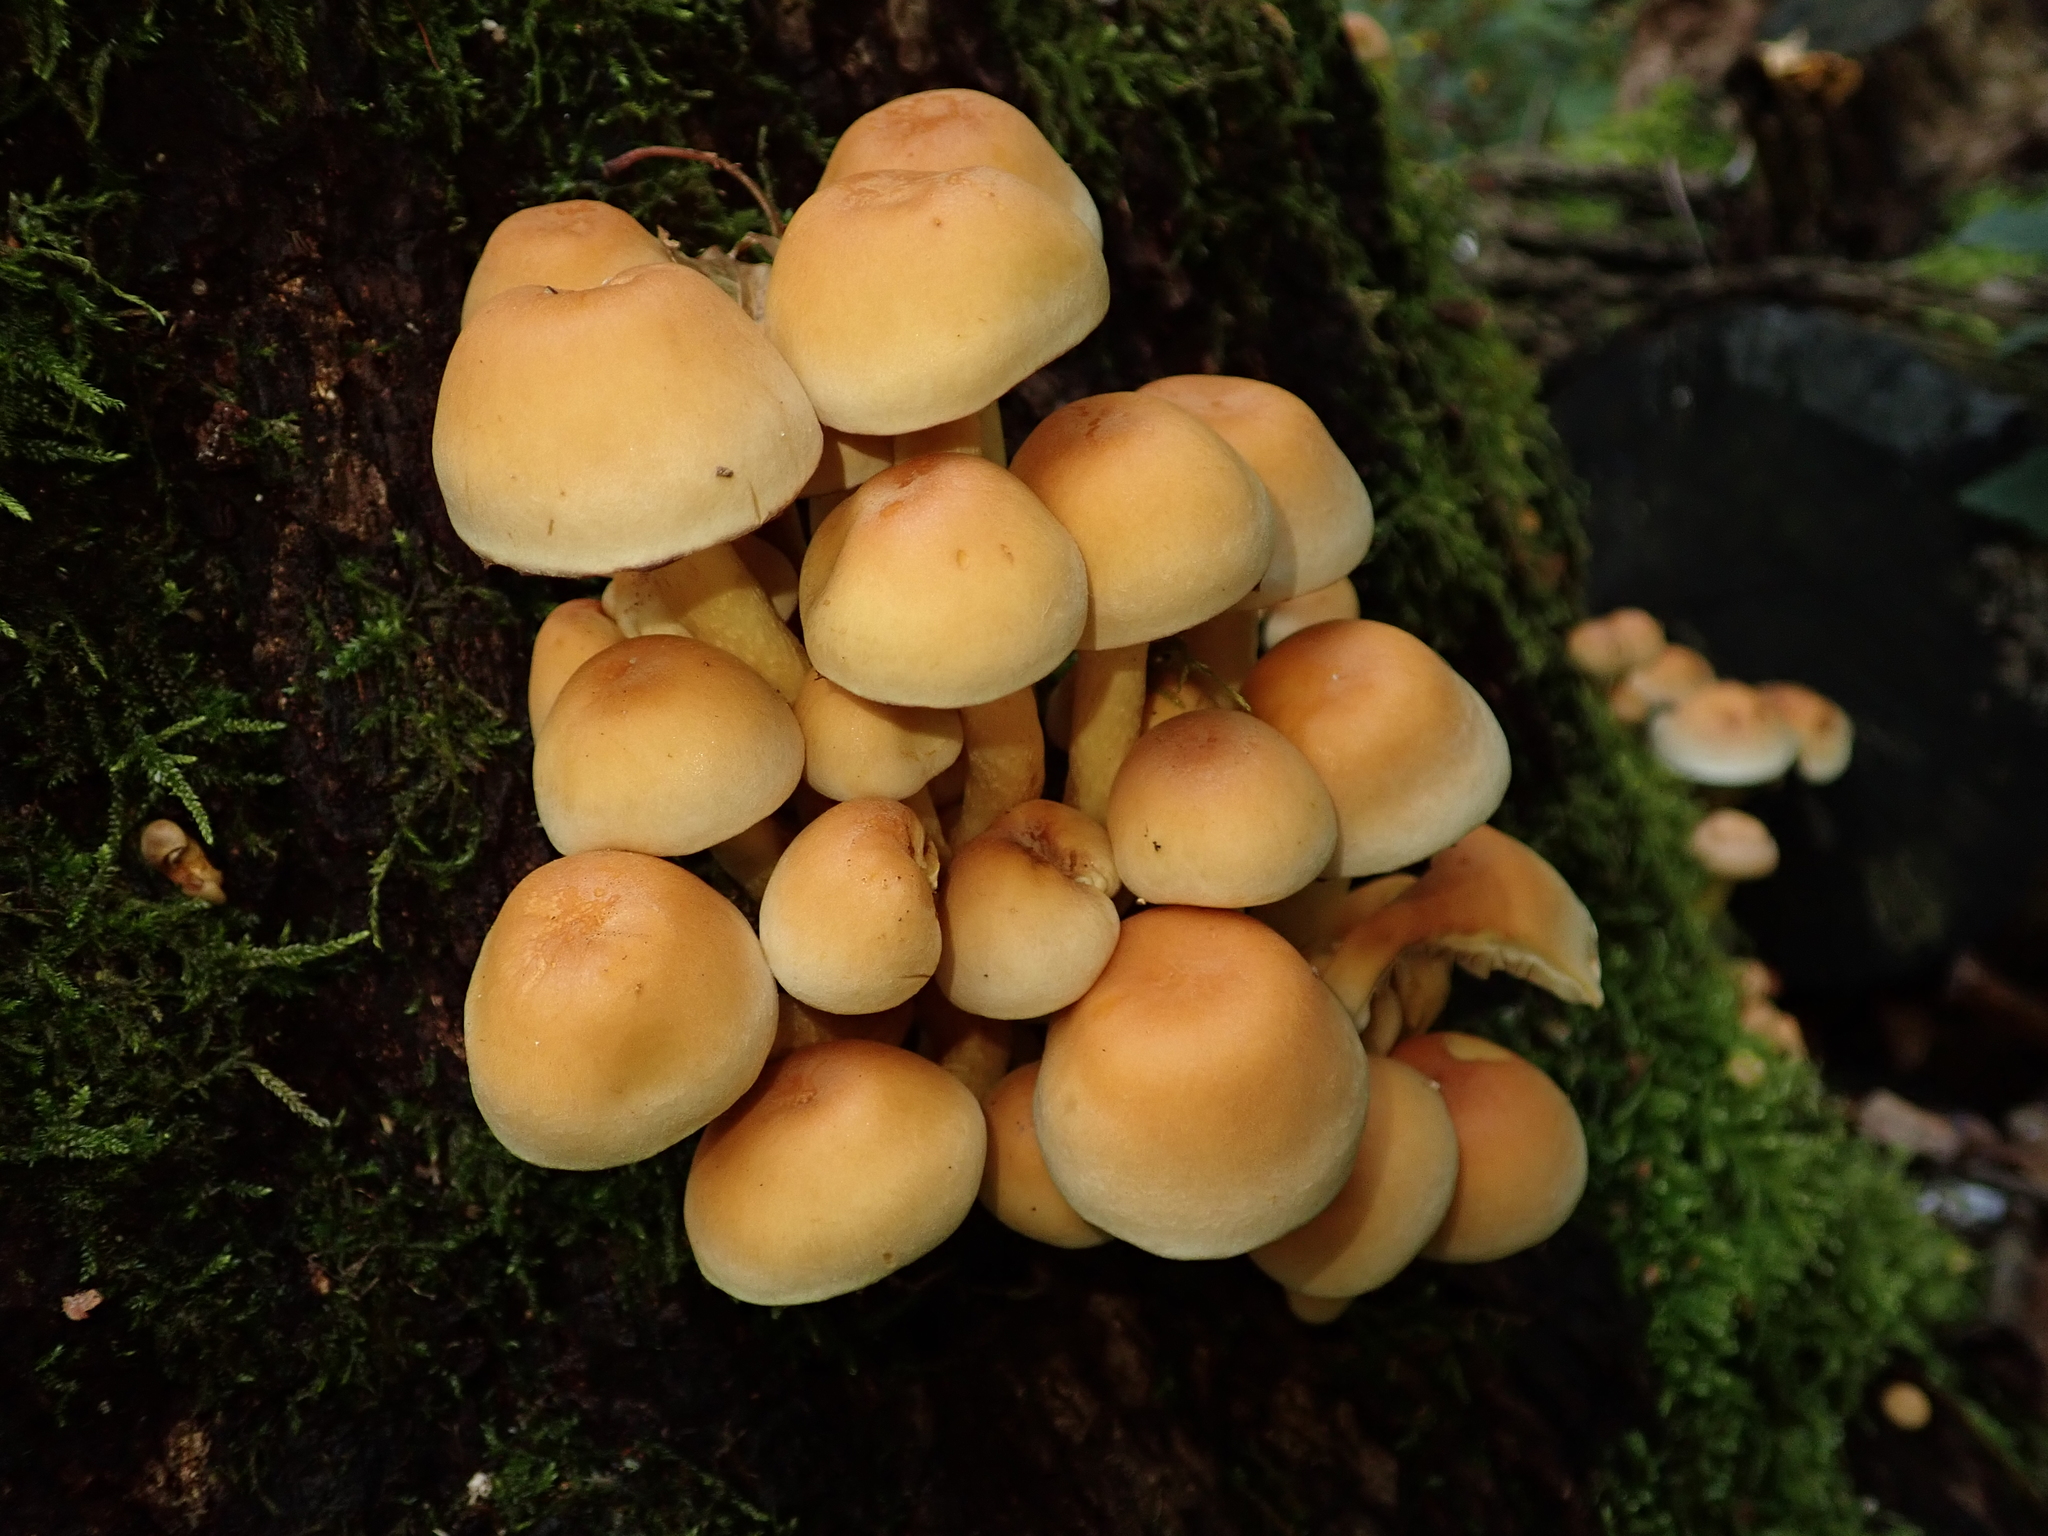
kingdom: Fungi
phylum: Basidiomycota
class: Agaricomycetes
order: Agaricales
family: Strophariaceae
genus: Hypholoma
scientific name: Hypholoma fasciculare
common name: Sulphur tuft
